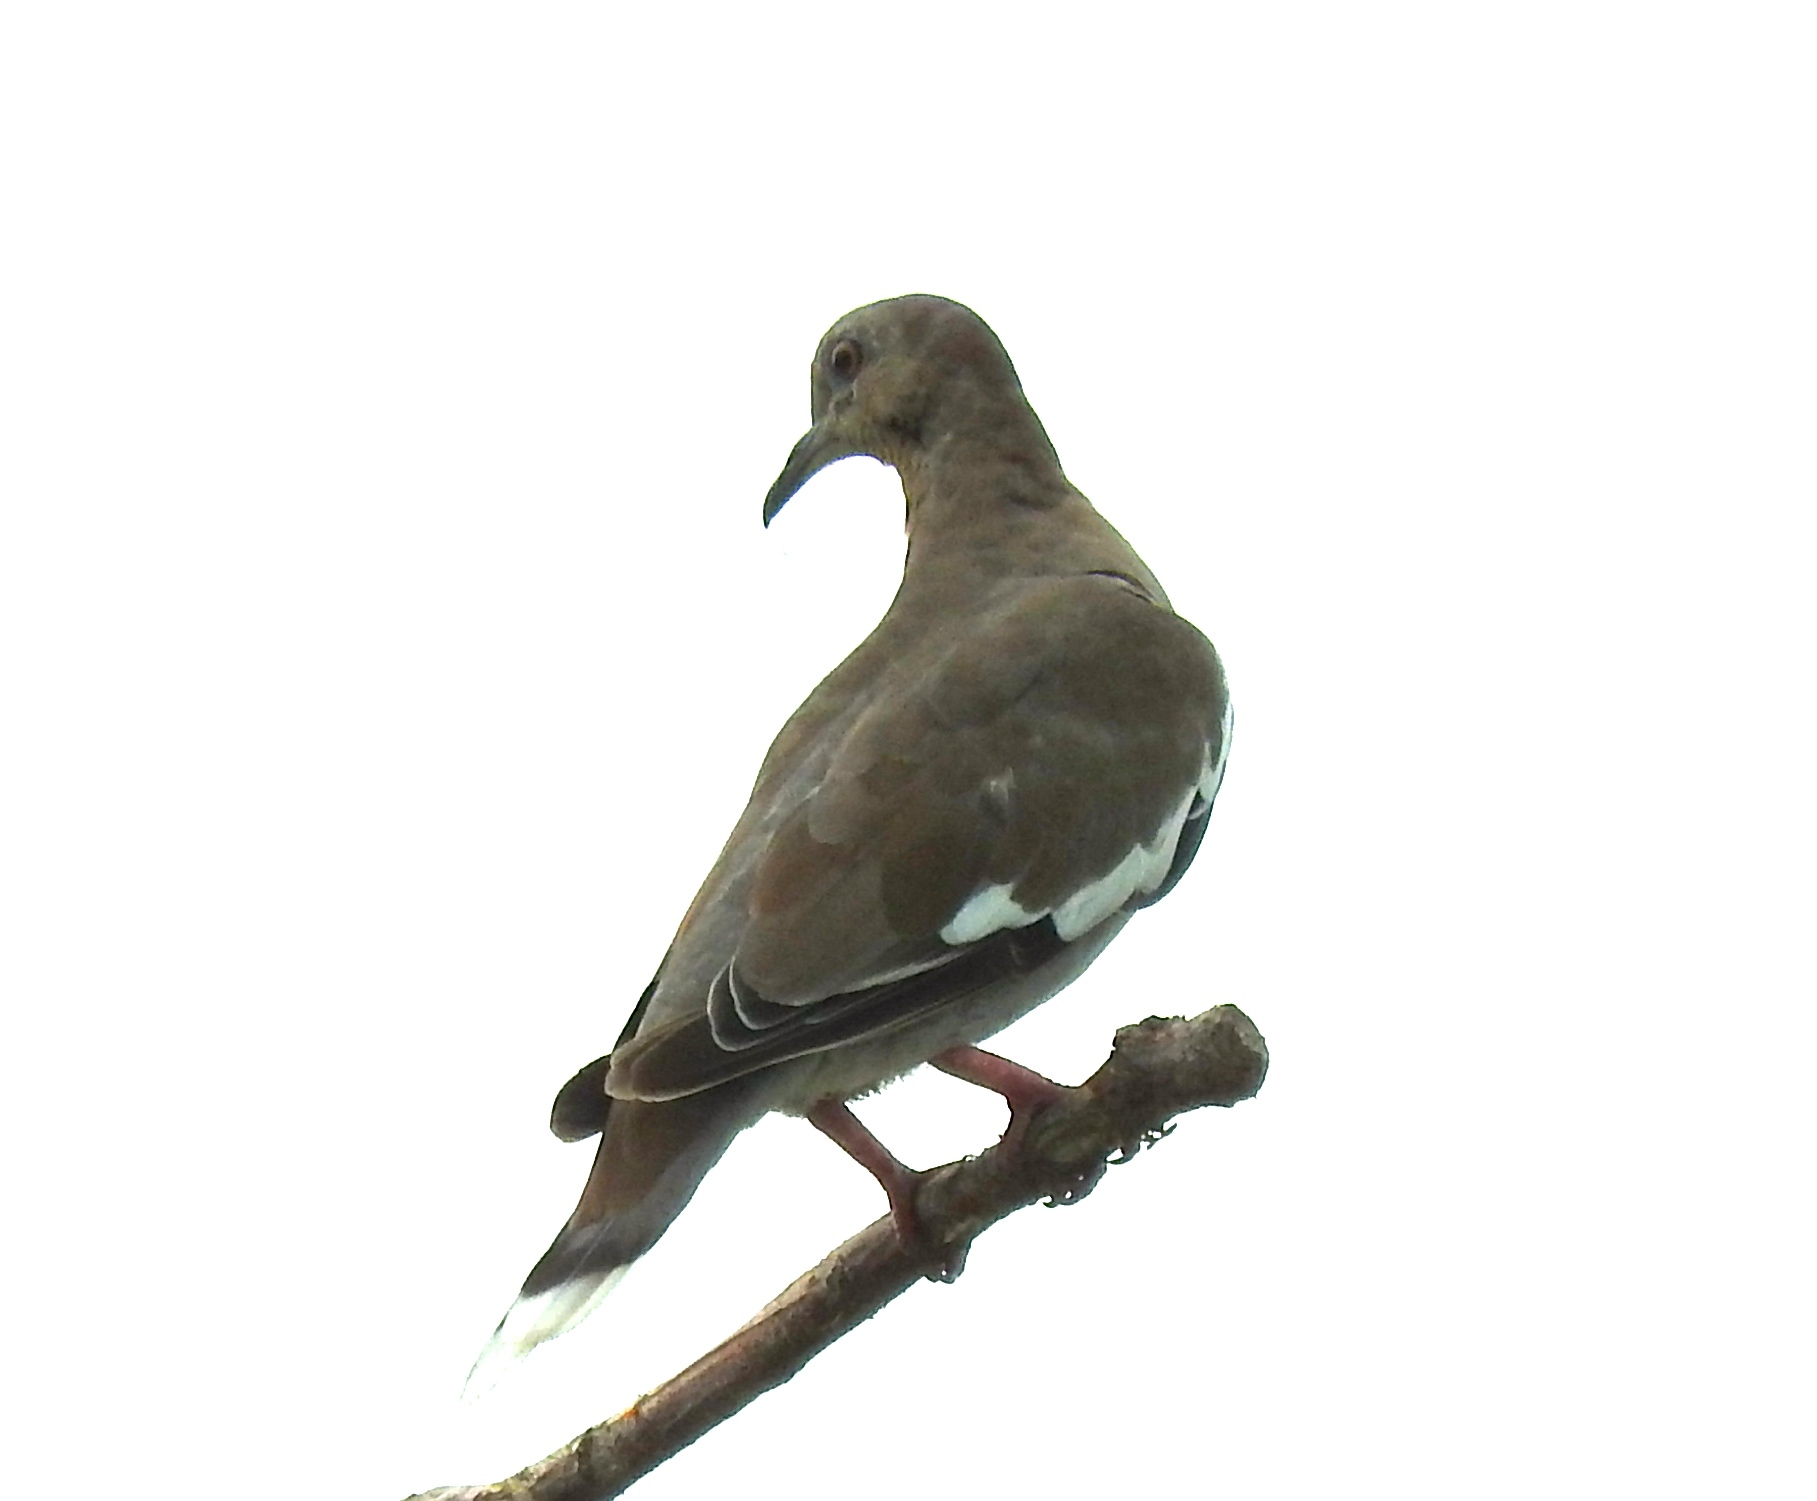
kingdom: Animalia
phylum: Chordata
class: Aves
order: Columbiformes
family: Columbidae
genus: Zenaida
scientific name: Zenaida asiatica
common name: White-winged dove
